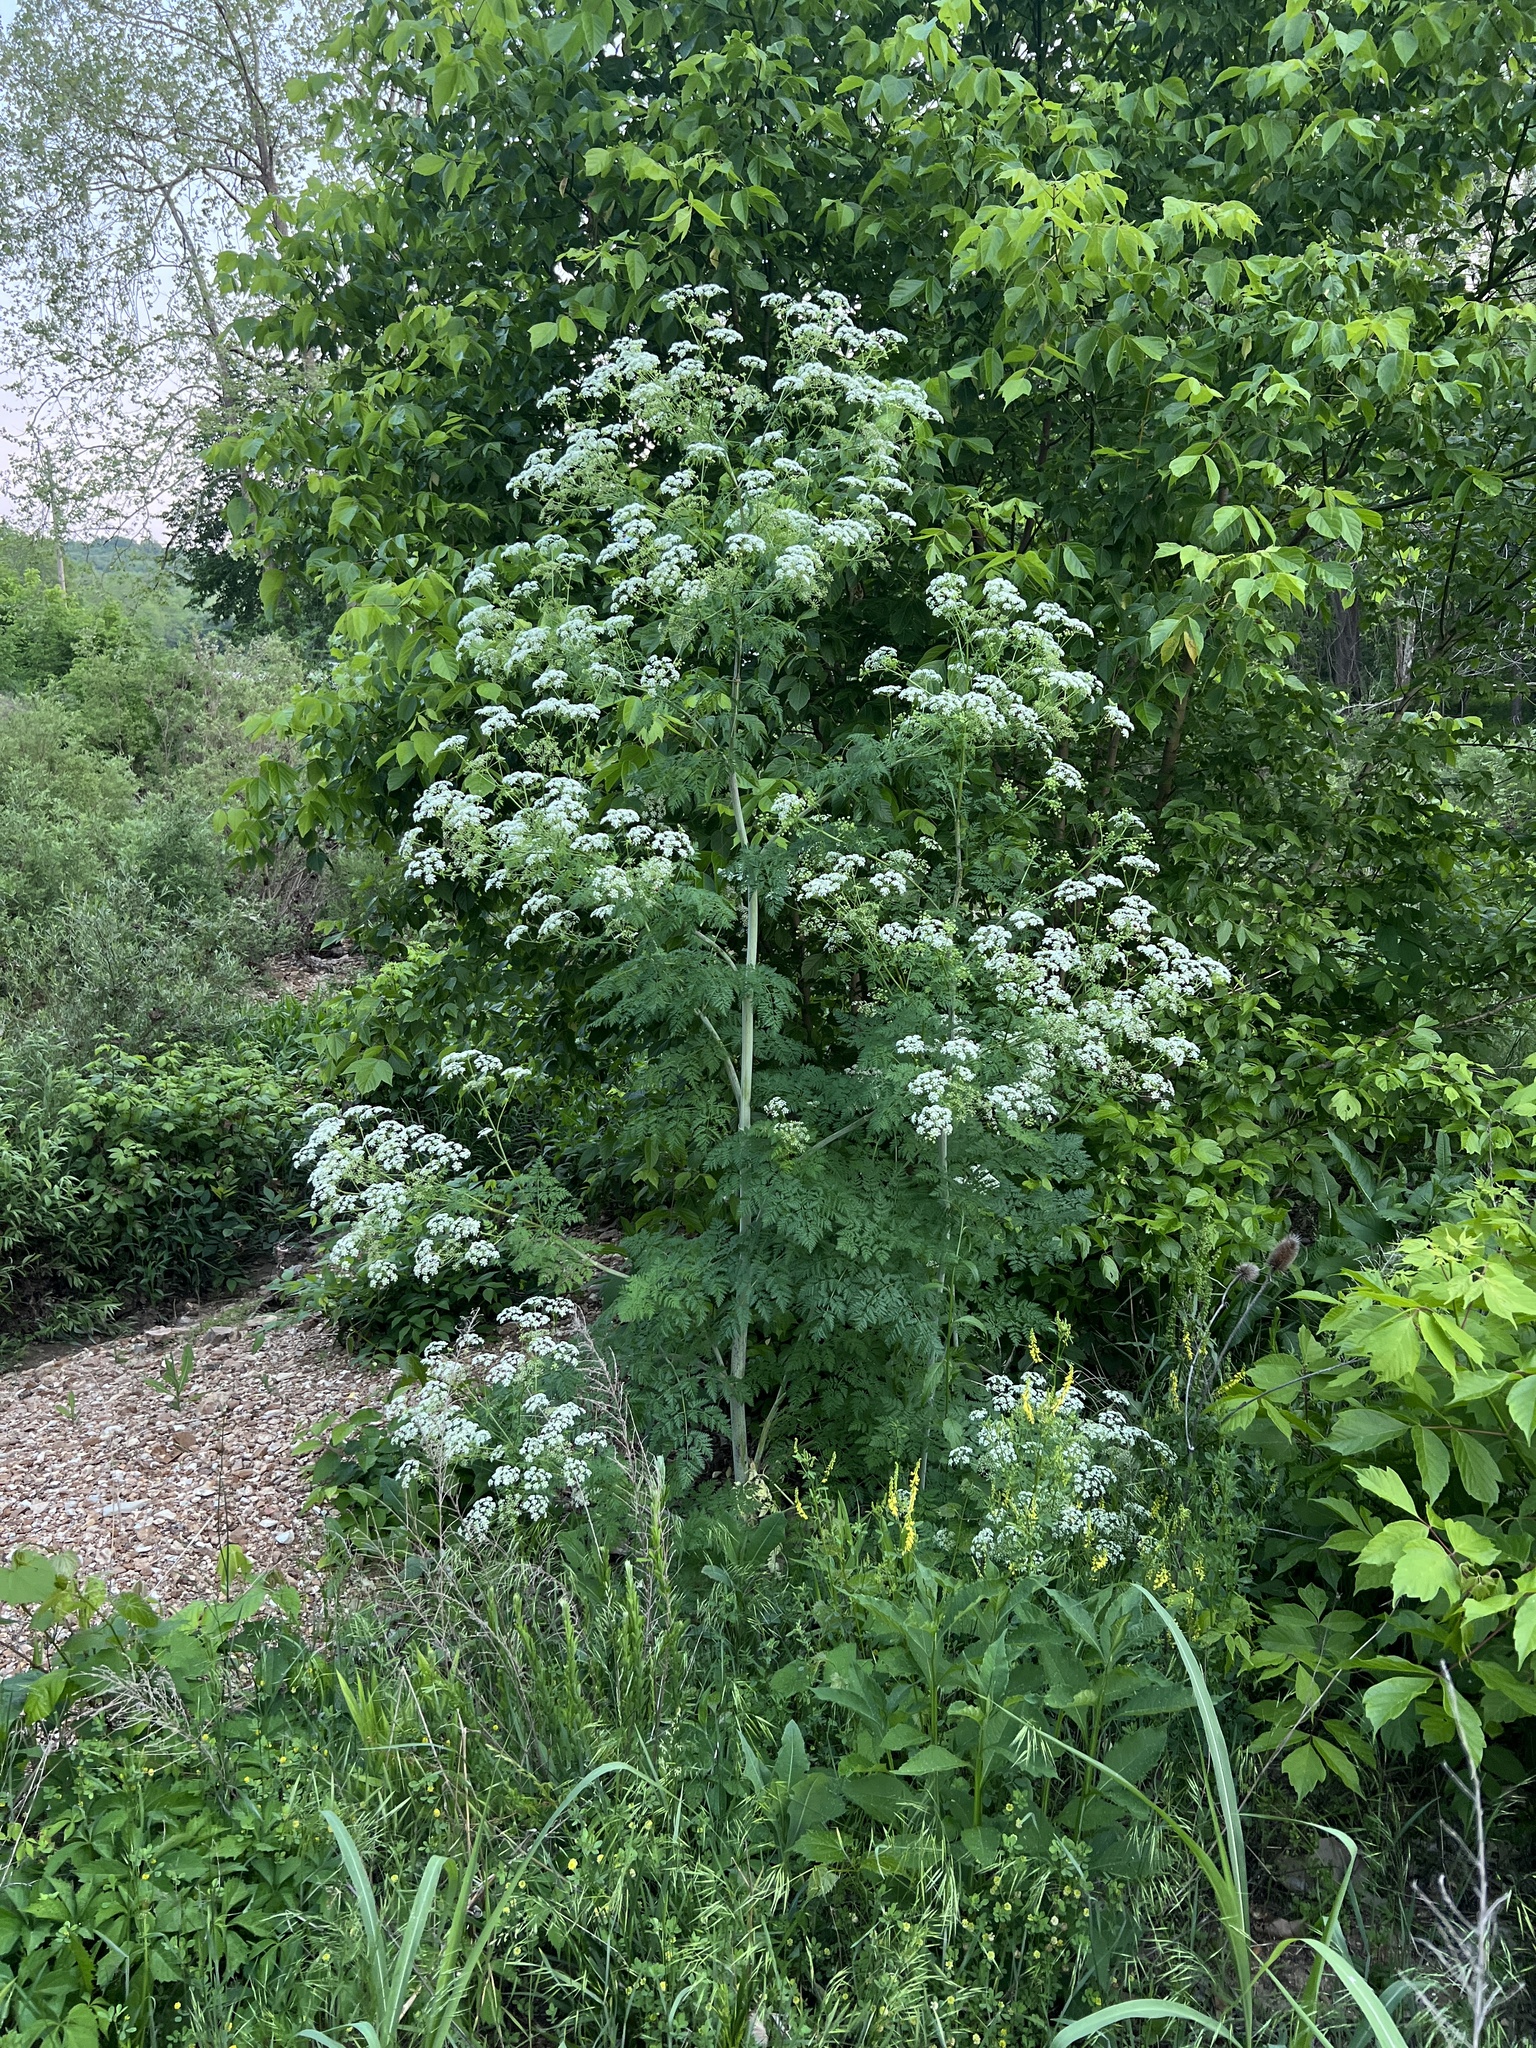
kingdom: Plantae
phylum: Tracheophyta
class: Magnoliopsida
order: Apiales
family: Apiaceae
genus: Conium
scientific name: Conium maculatum
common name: Hemlock
